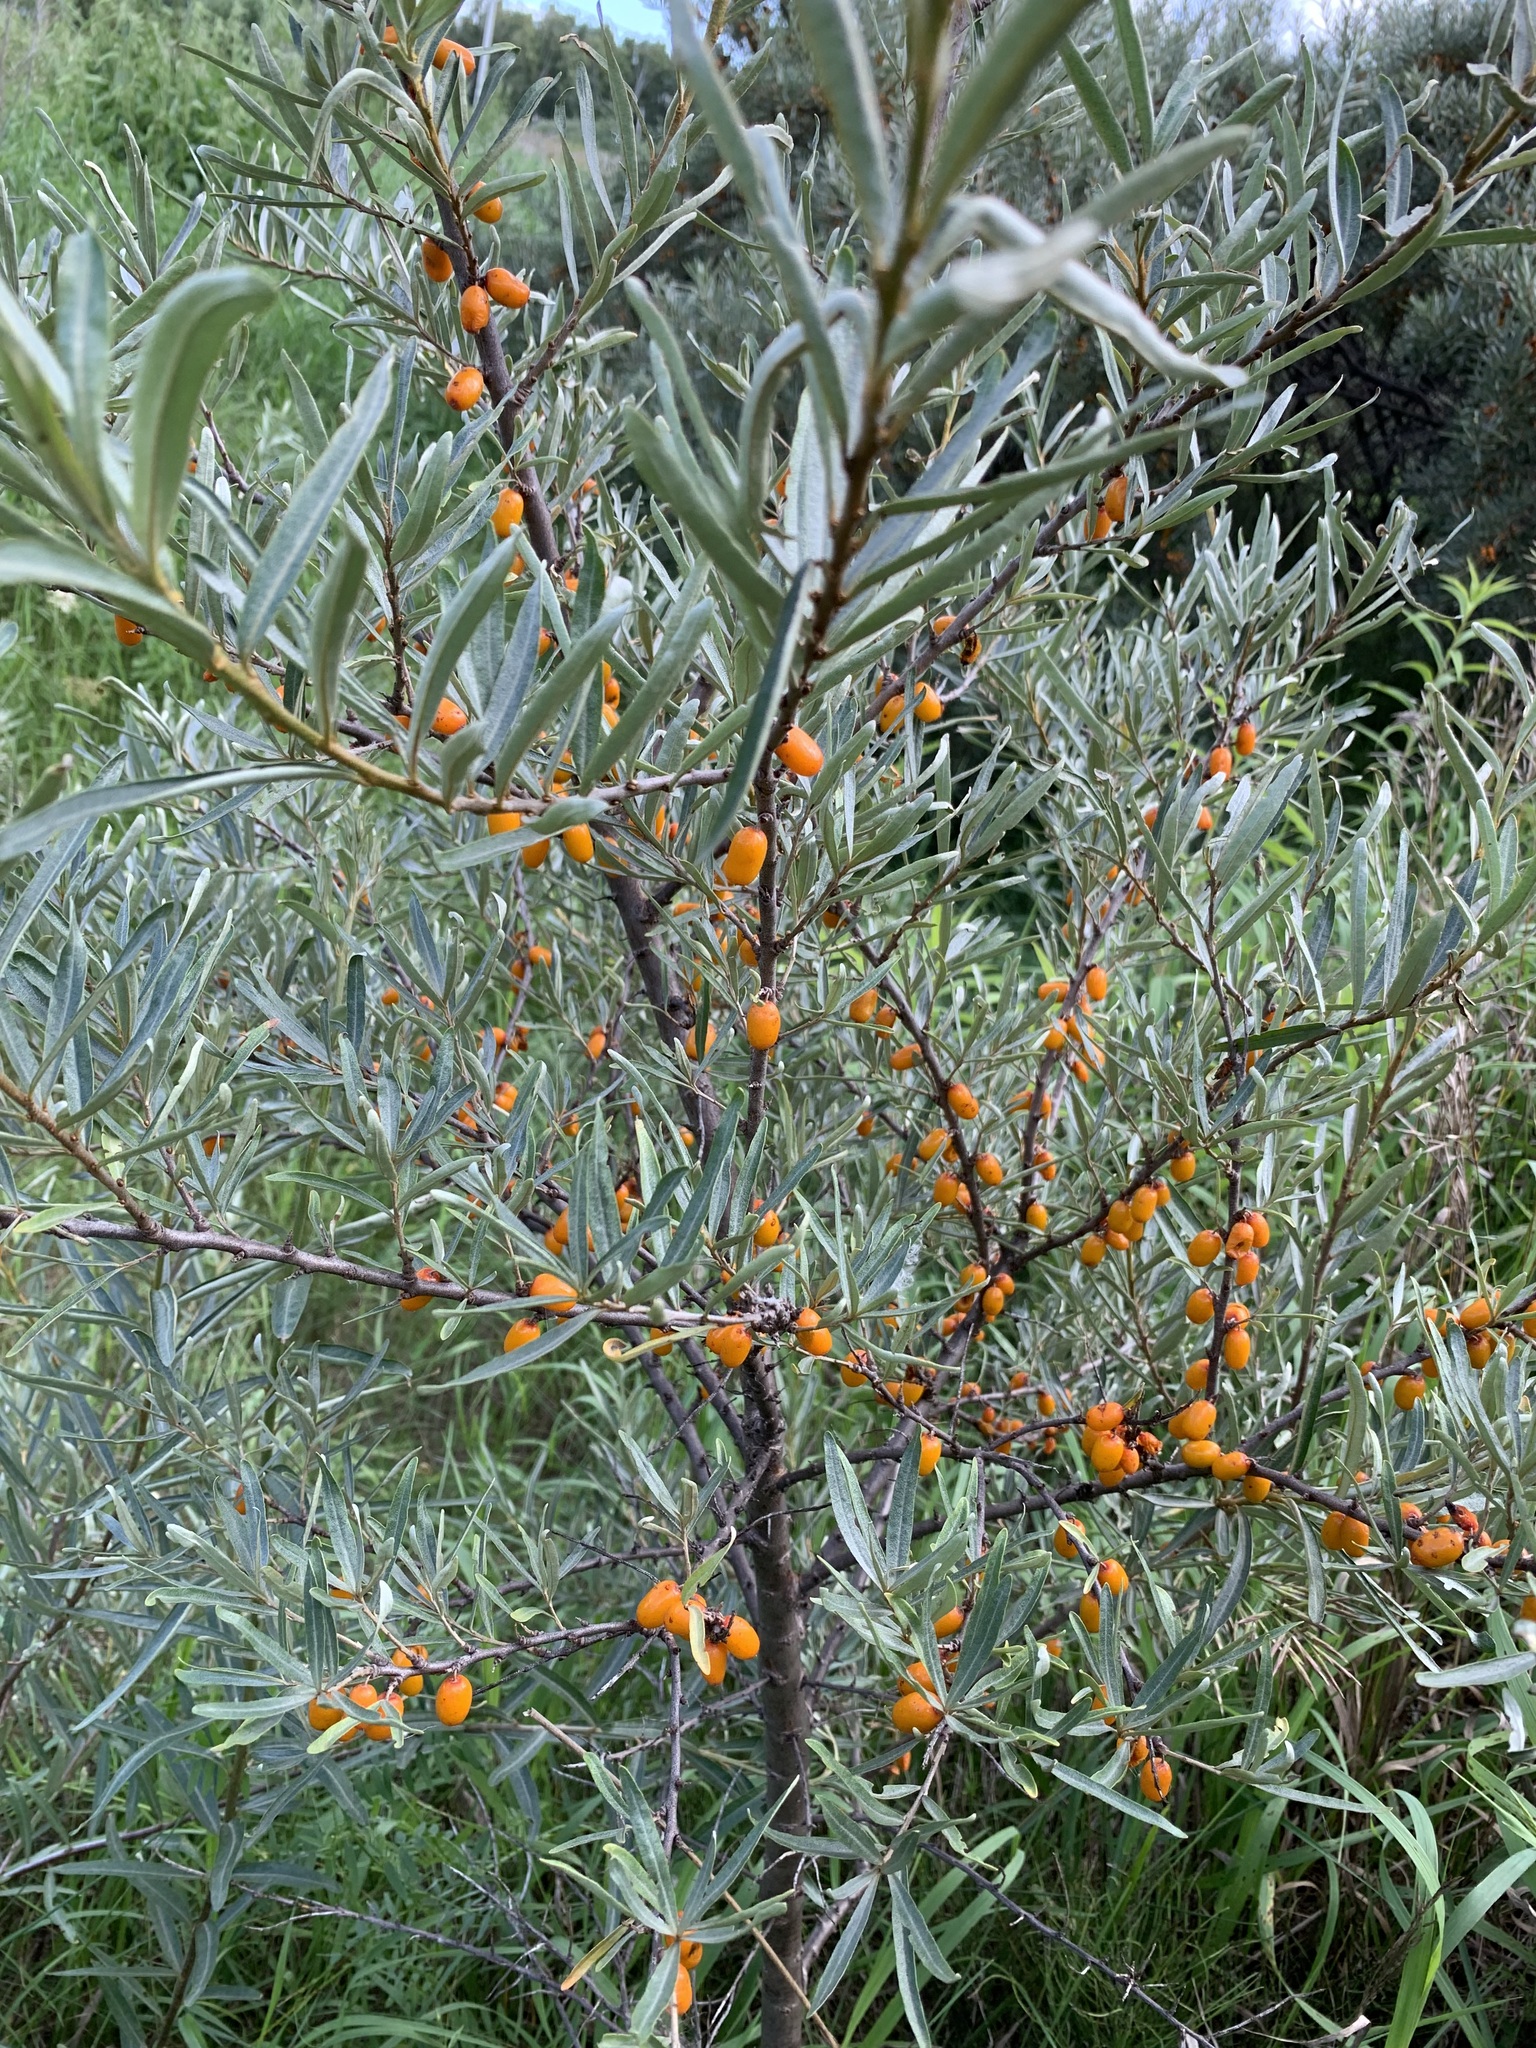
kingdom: Plantae
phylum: Tracheophyta
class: Magnoliopsida
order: Rosales
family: Elaeagnaceae
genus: Hippophae
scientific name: Hippophae rhamnoides
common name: Sea-buckthorn
